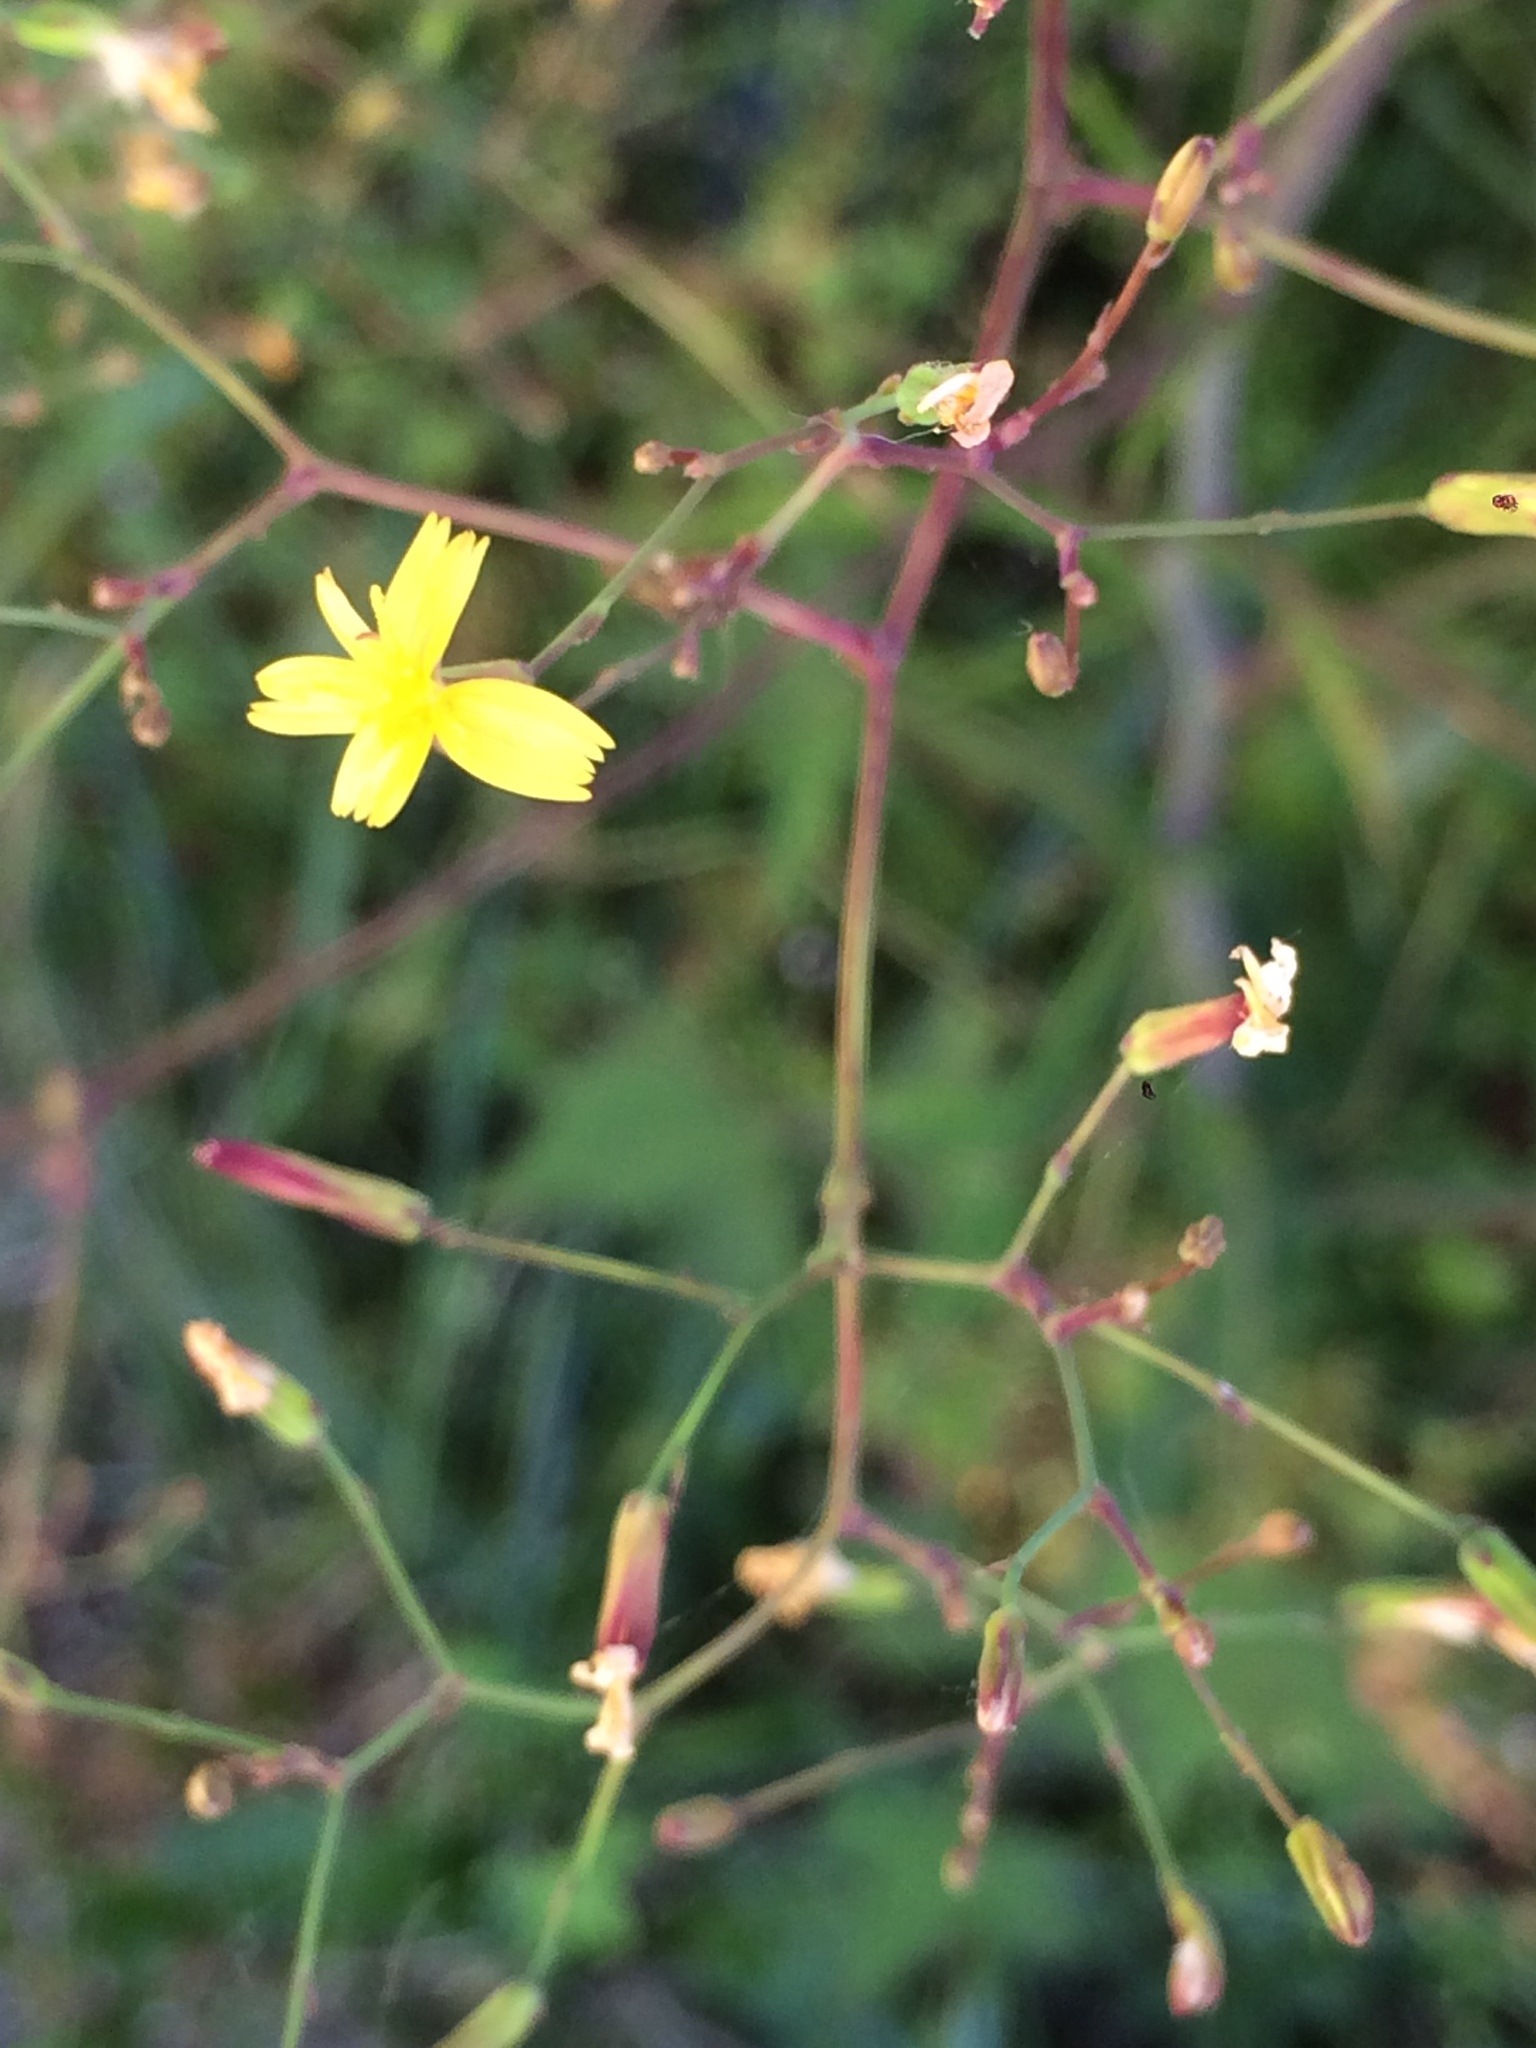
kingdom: Plantae
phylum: Tracheophyta
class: Magnoliopsida
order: Asterales
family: Asteraceae
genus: Mycelis
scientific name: Mycelis muralis
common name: Wall lettuce
